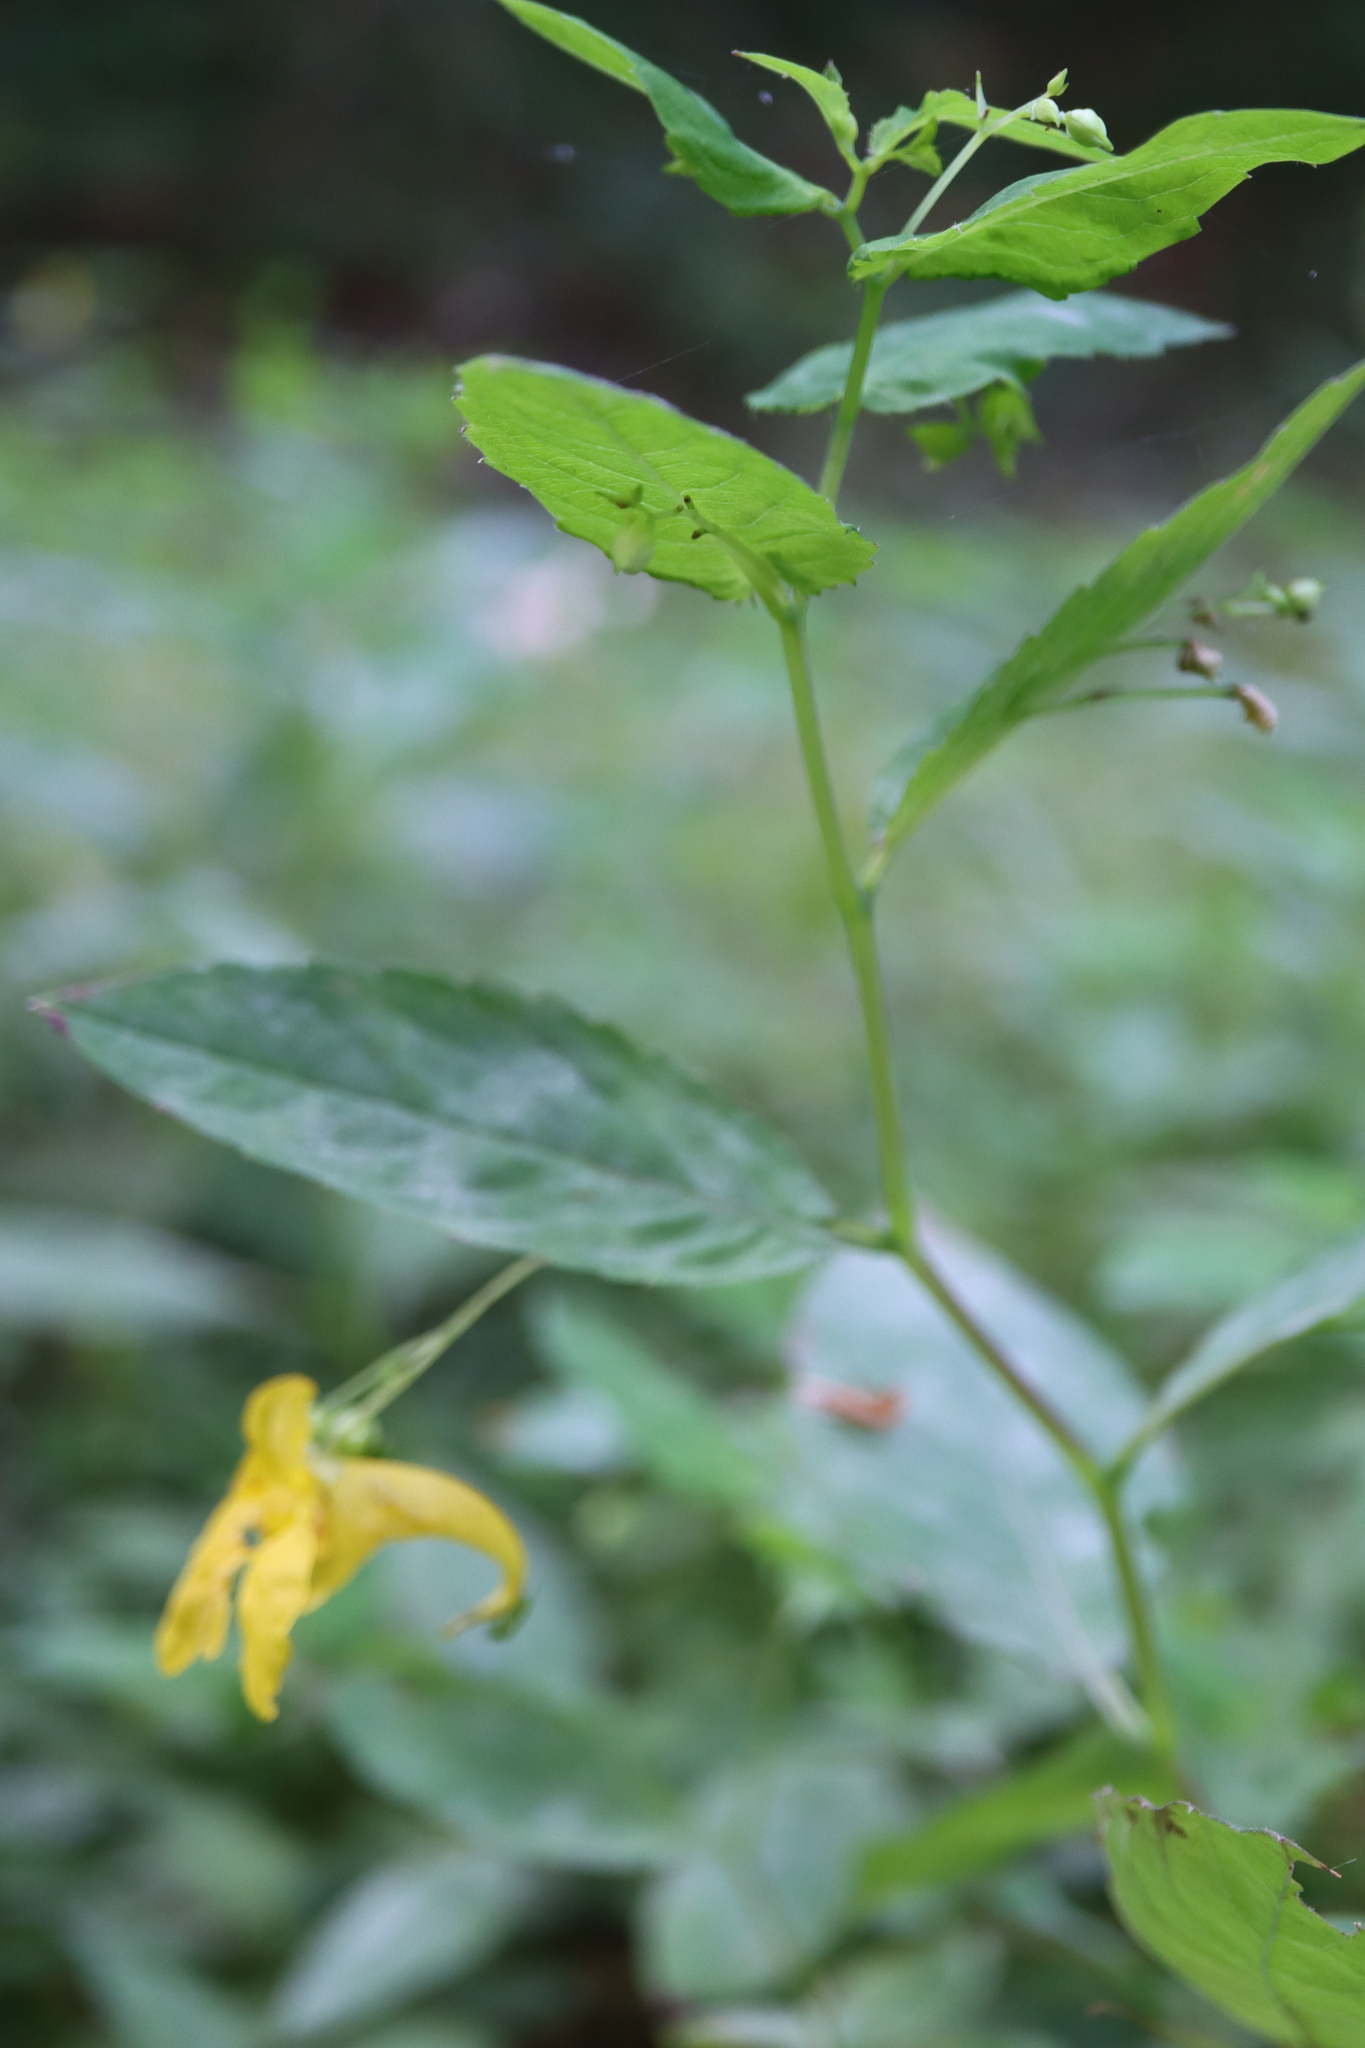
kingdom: Plantae
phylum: Tracheophyta
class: Magnoliopsida
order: Ericales
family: Balsaminaceae
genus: Impatiens
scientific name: Impatiens noli-tangere
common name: Touch-me-not balsam
